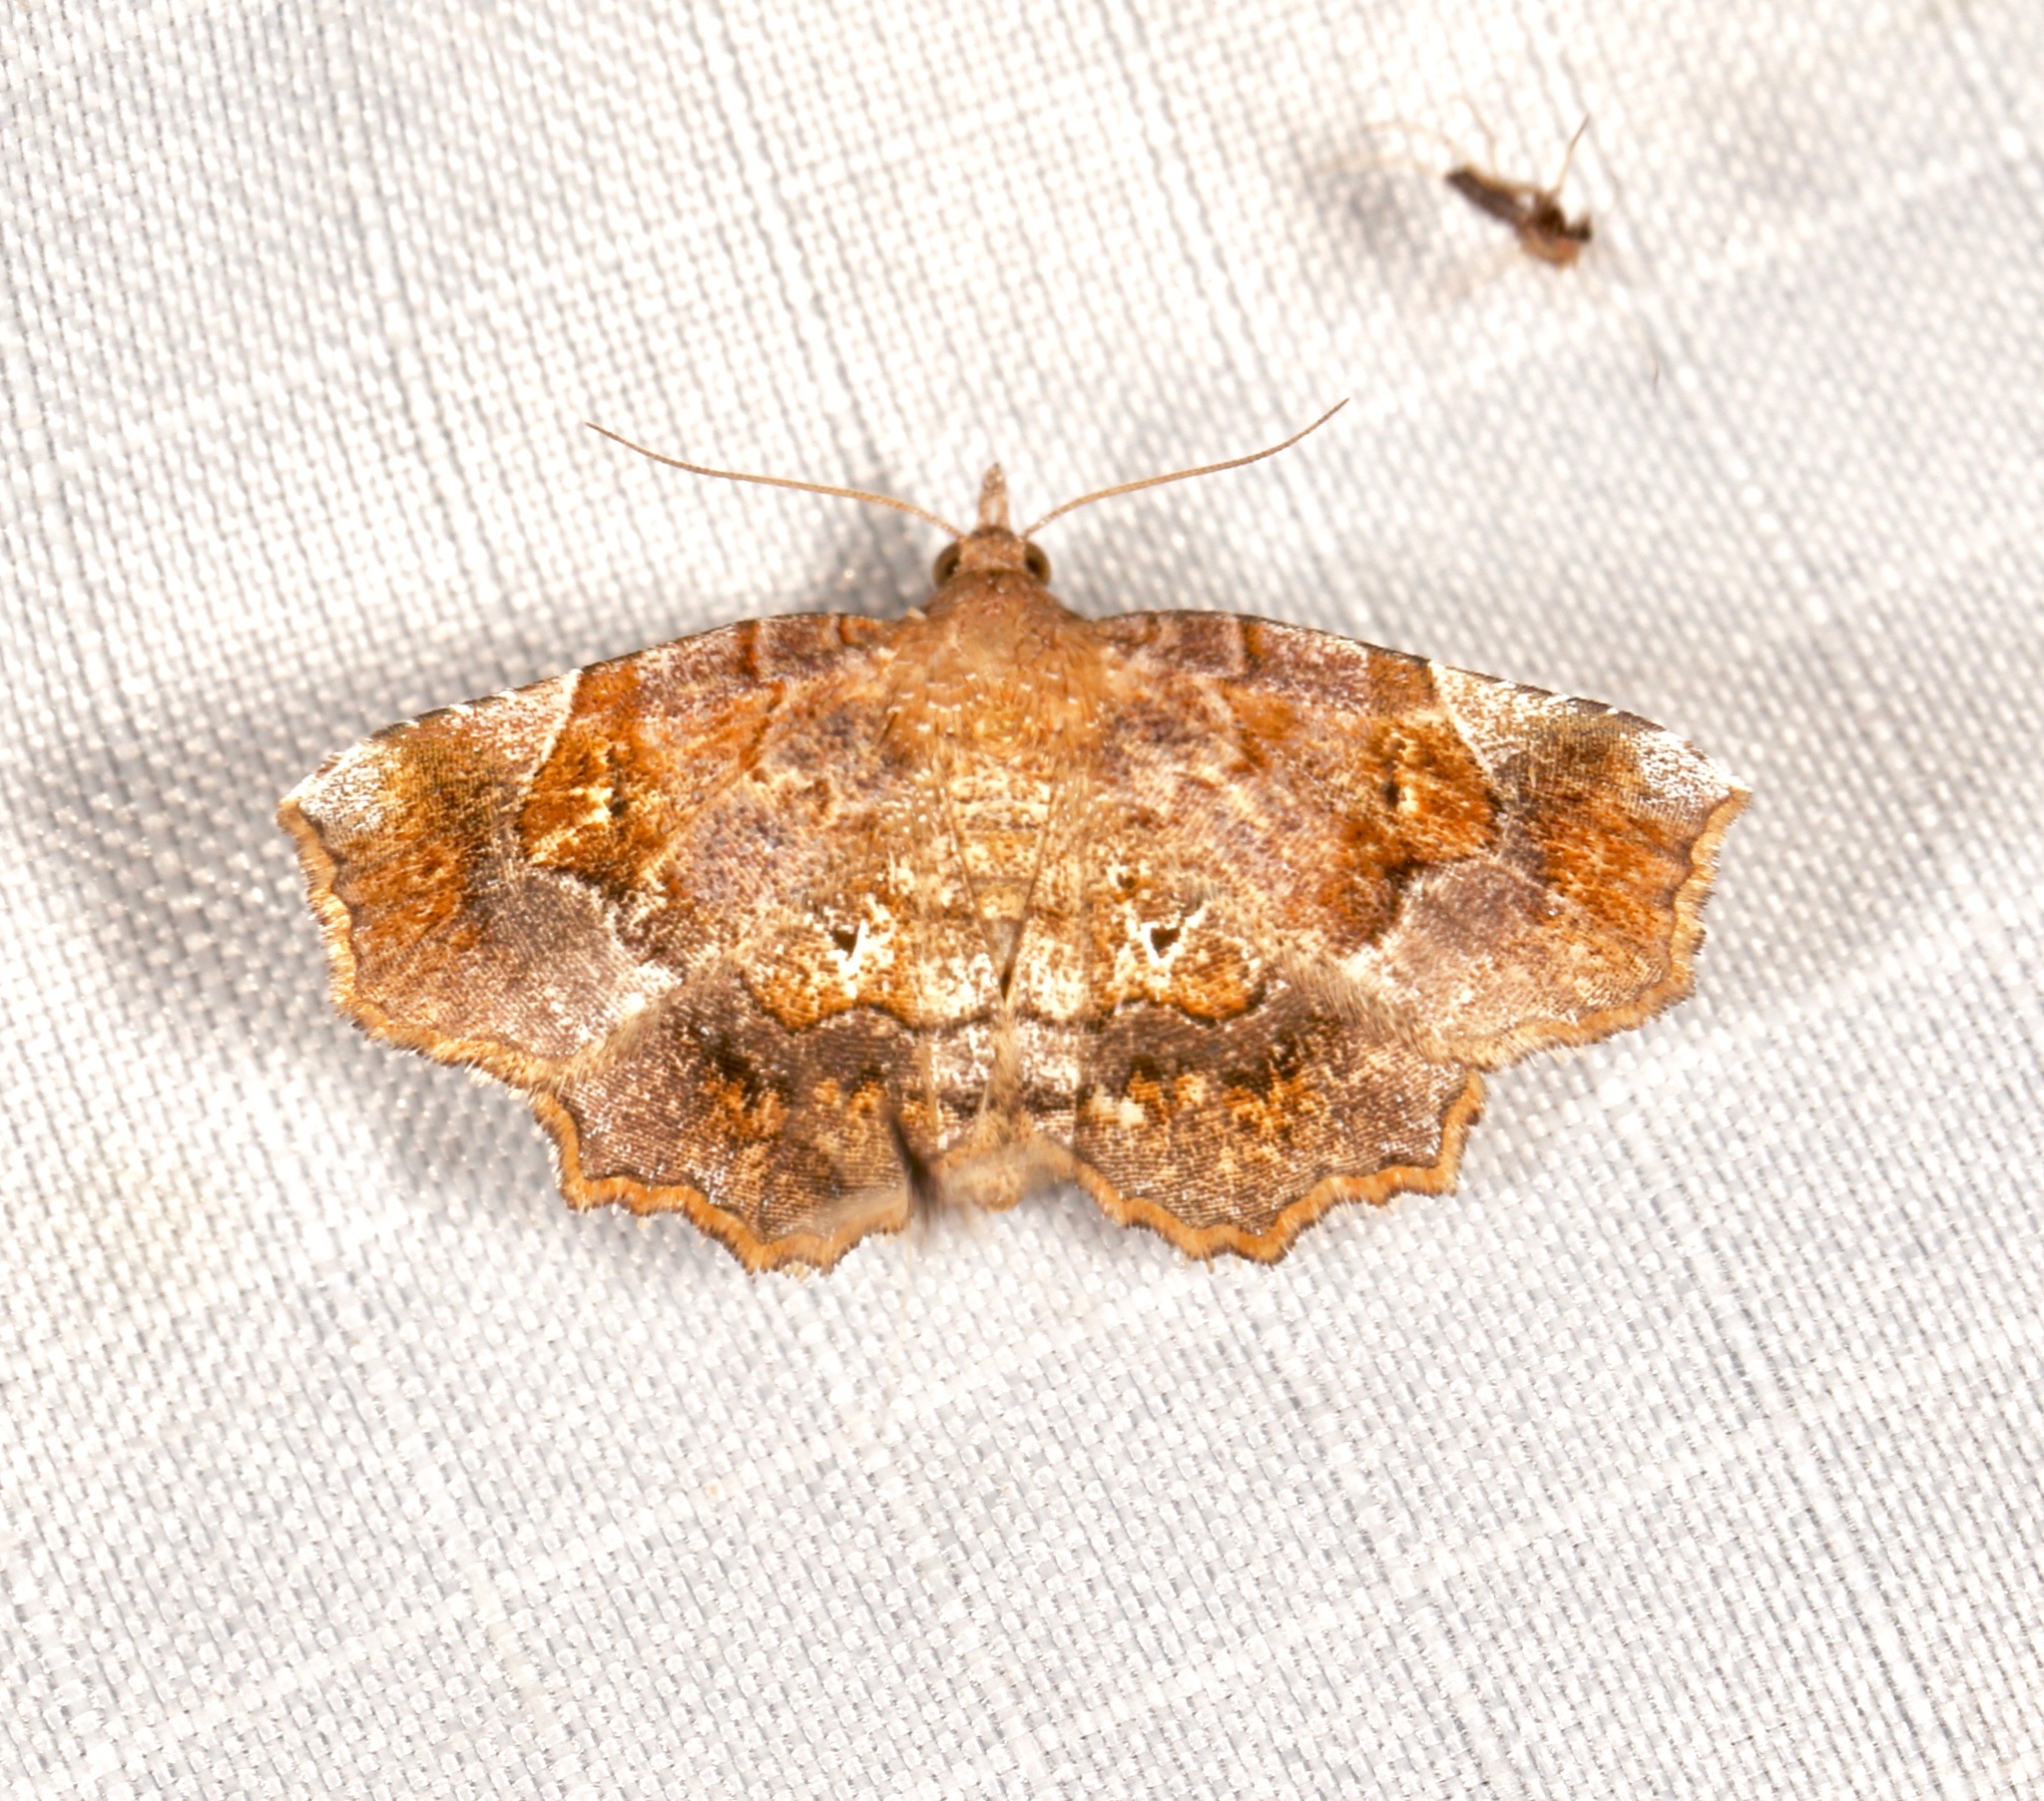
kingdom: Animalia
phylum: Arthropoda
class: Insecta
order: Lepidoptera
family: Erebidae
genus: Pangrapta
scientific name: Pangrapta decoralis
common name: Decorated owlet
